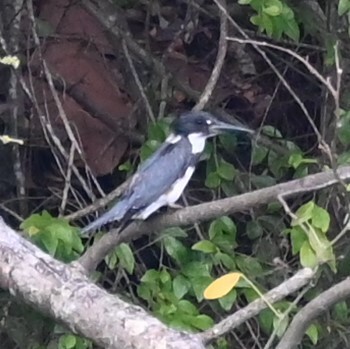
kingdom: Animalia
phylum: Chordata
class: Aves
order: Coraciiformes
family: Alcedinidae
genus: Megaceryle
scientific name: Megaceryle alcyon
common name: Belted kingfisher
